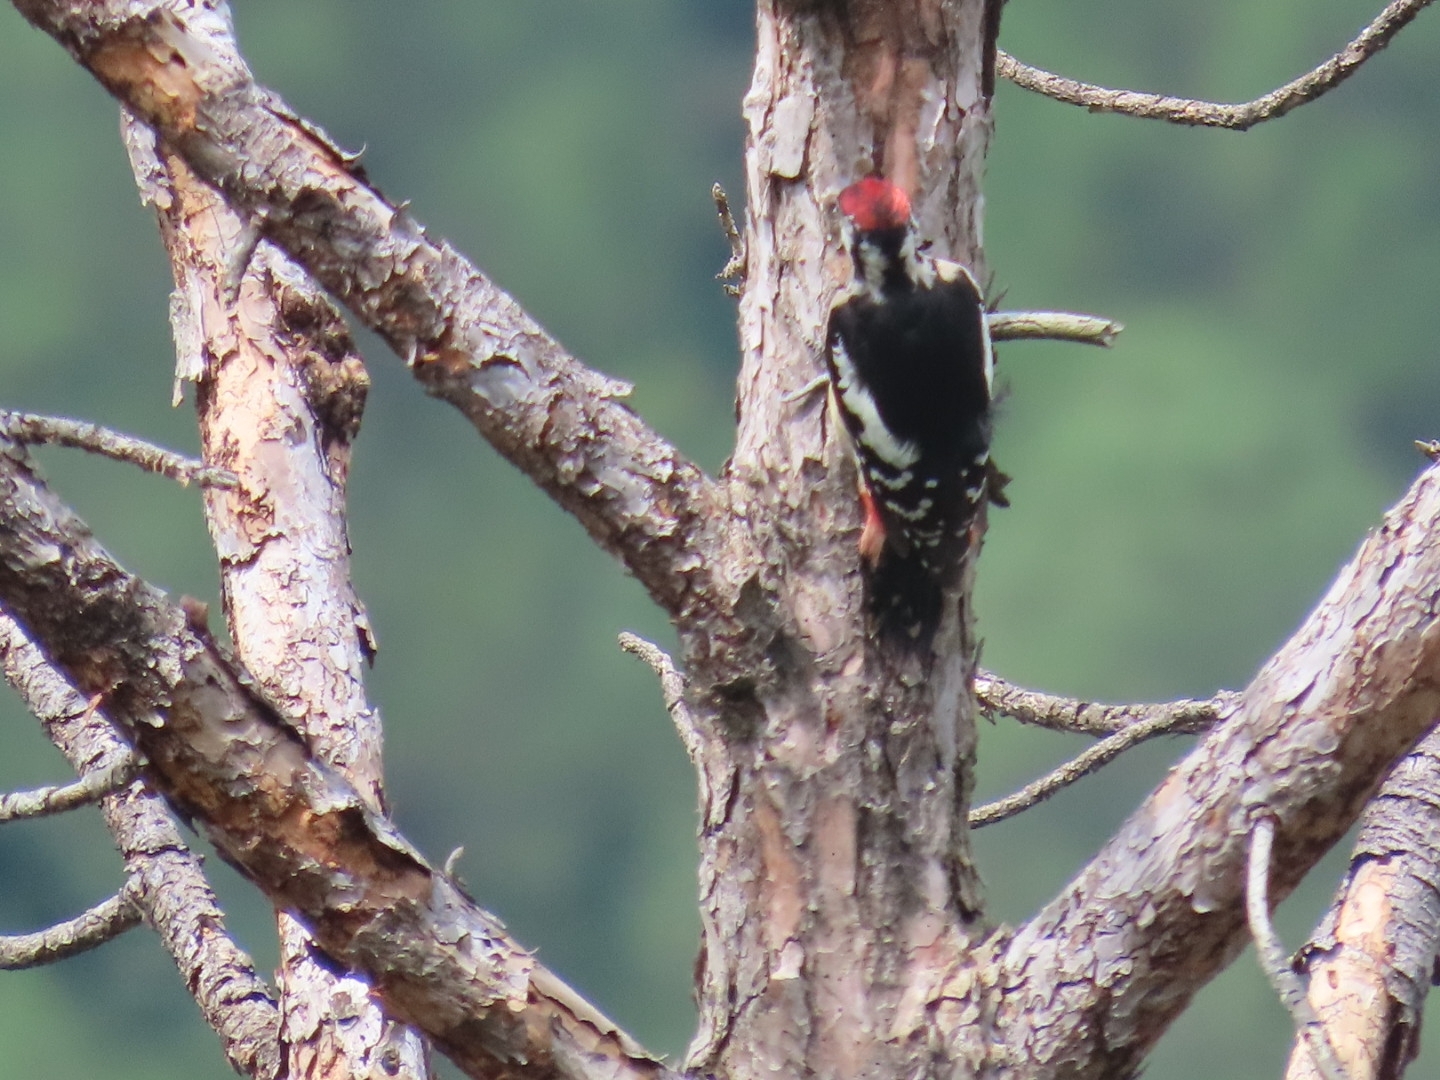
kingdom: Animalia
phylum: Chordata
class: Aves
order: Piciformes
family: Picidae
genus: Dendrocopos
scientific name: Dendrocopos himalayensis
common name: Himalayan woodpecker
